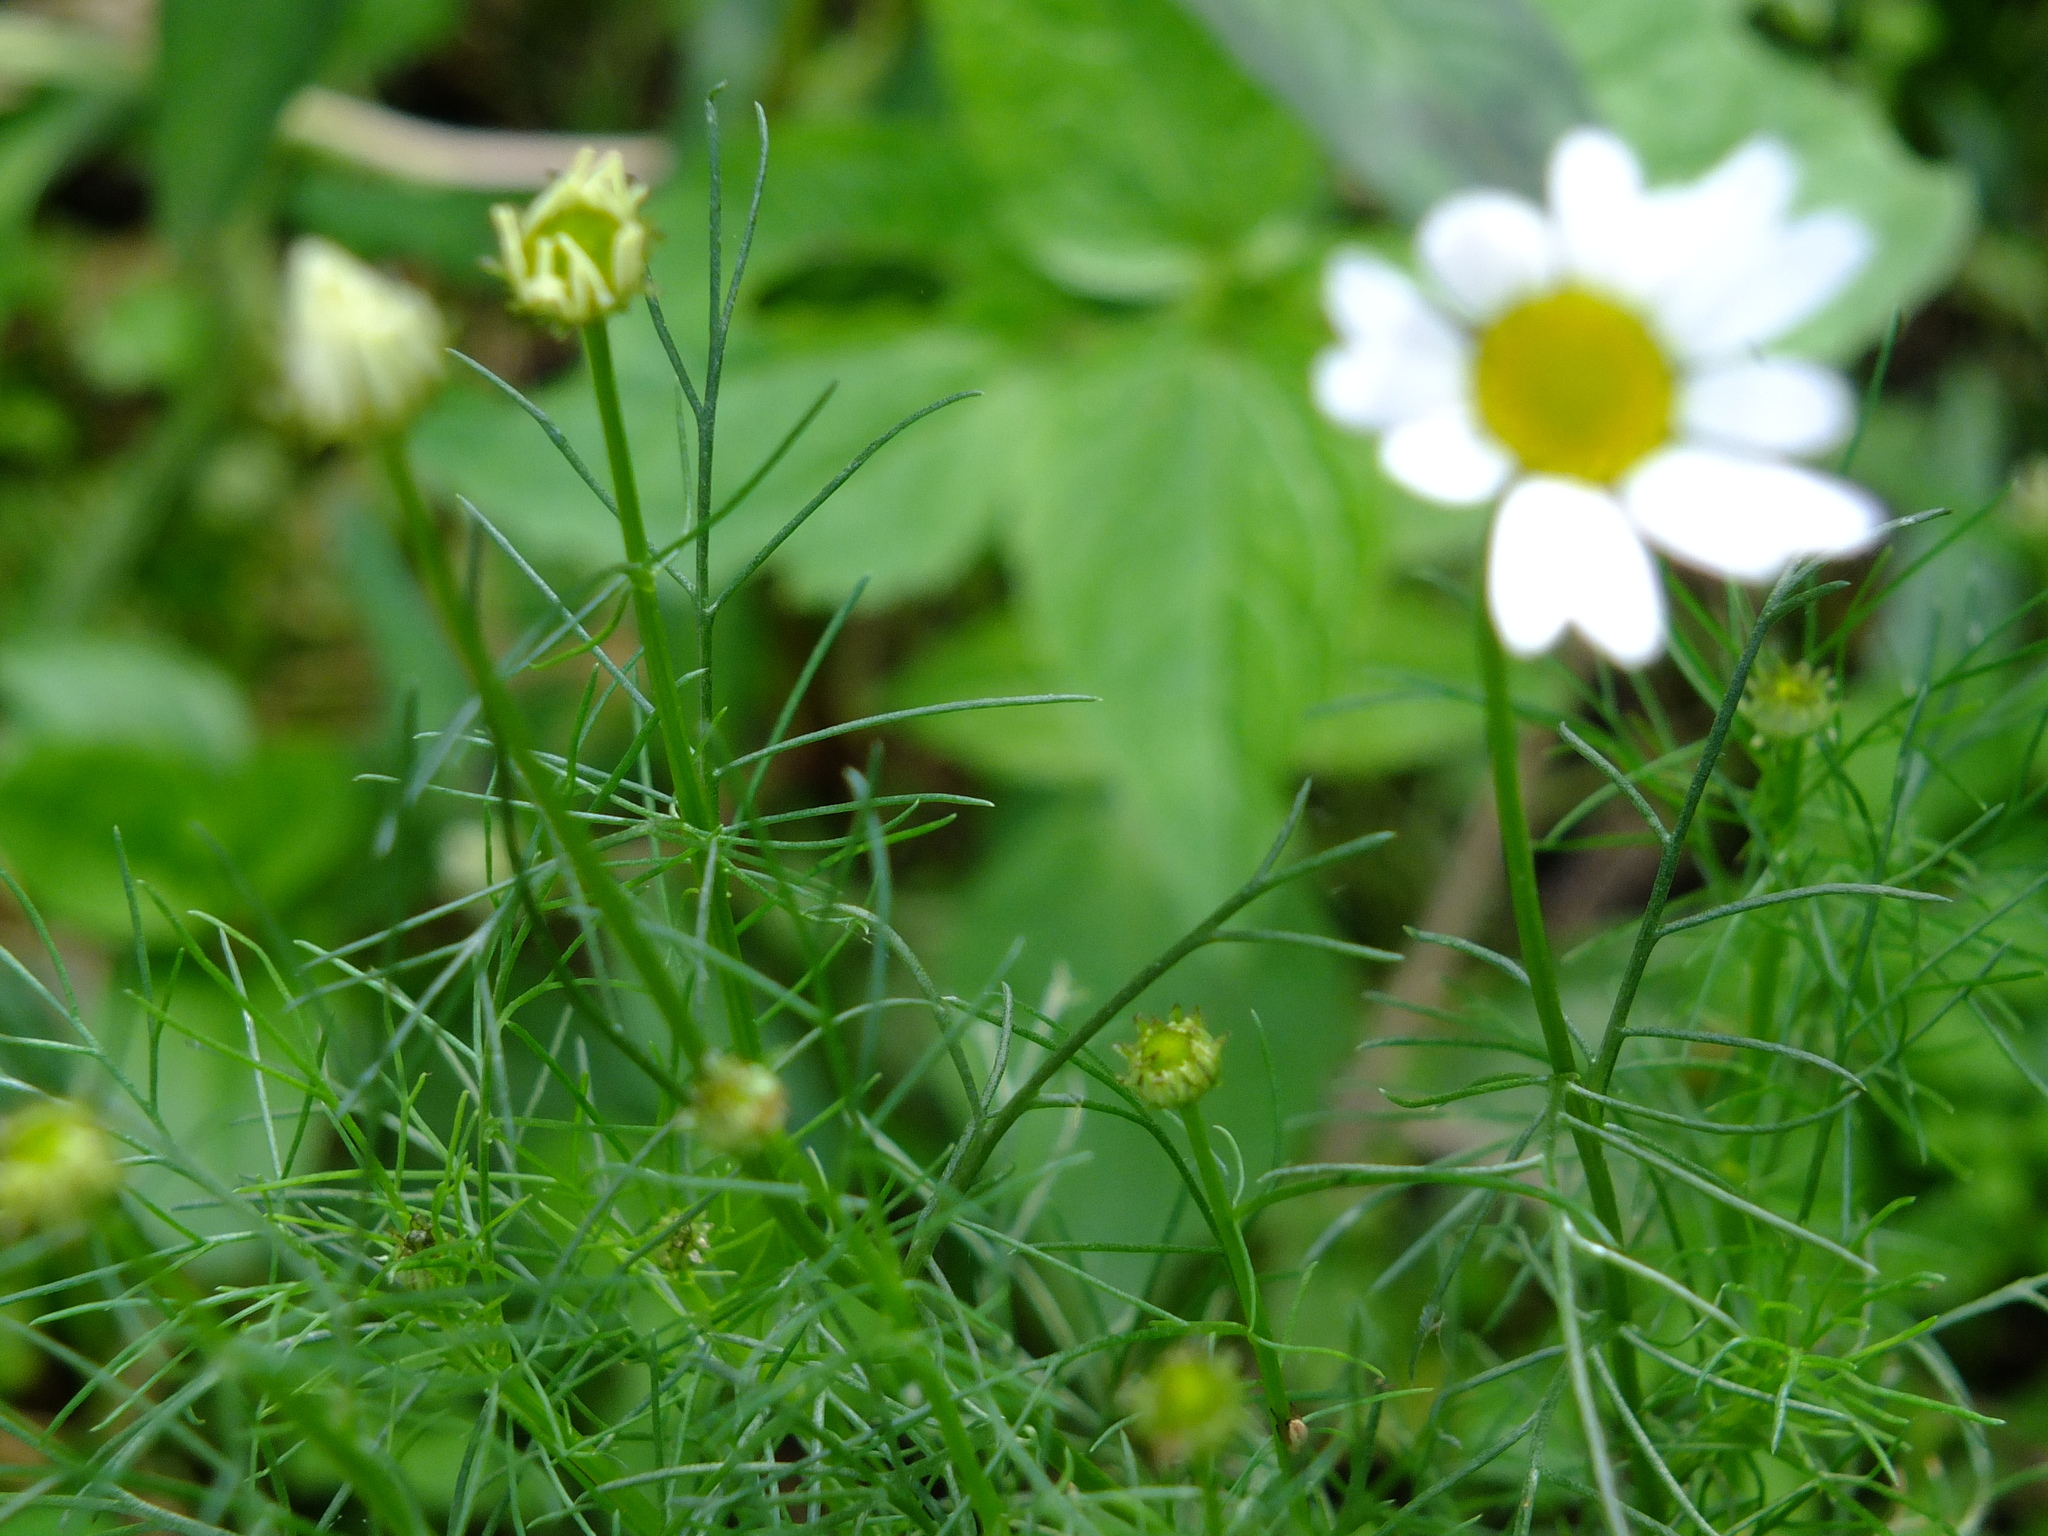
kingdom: Plantae
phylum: Tracheophyta
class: Magnoliopsida
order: Asterales
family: Asteraceae
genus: Tripleurospermum
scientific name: Tripleurospermum inodorum
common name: Scentless mayweed
